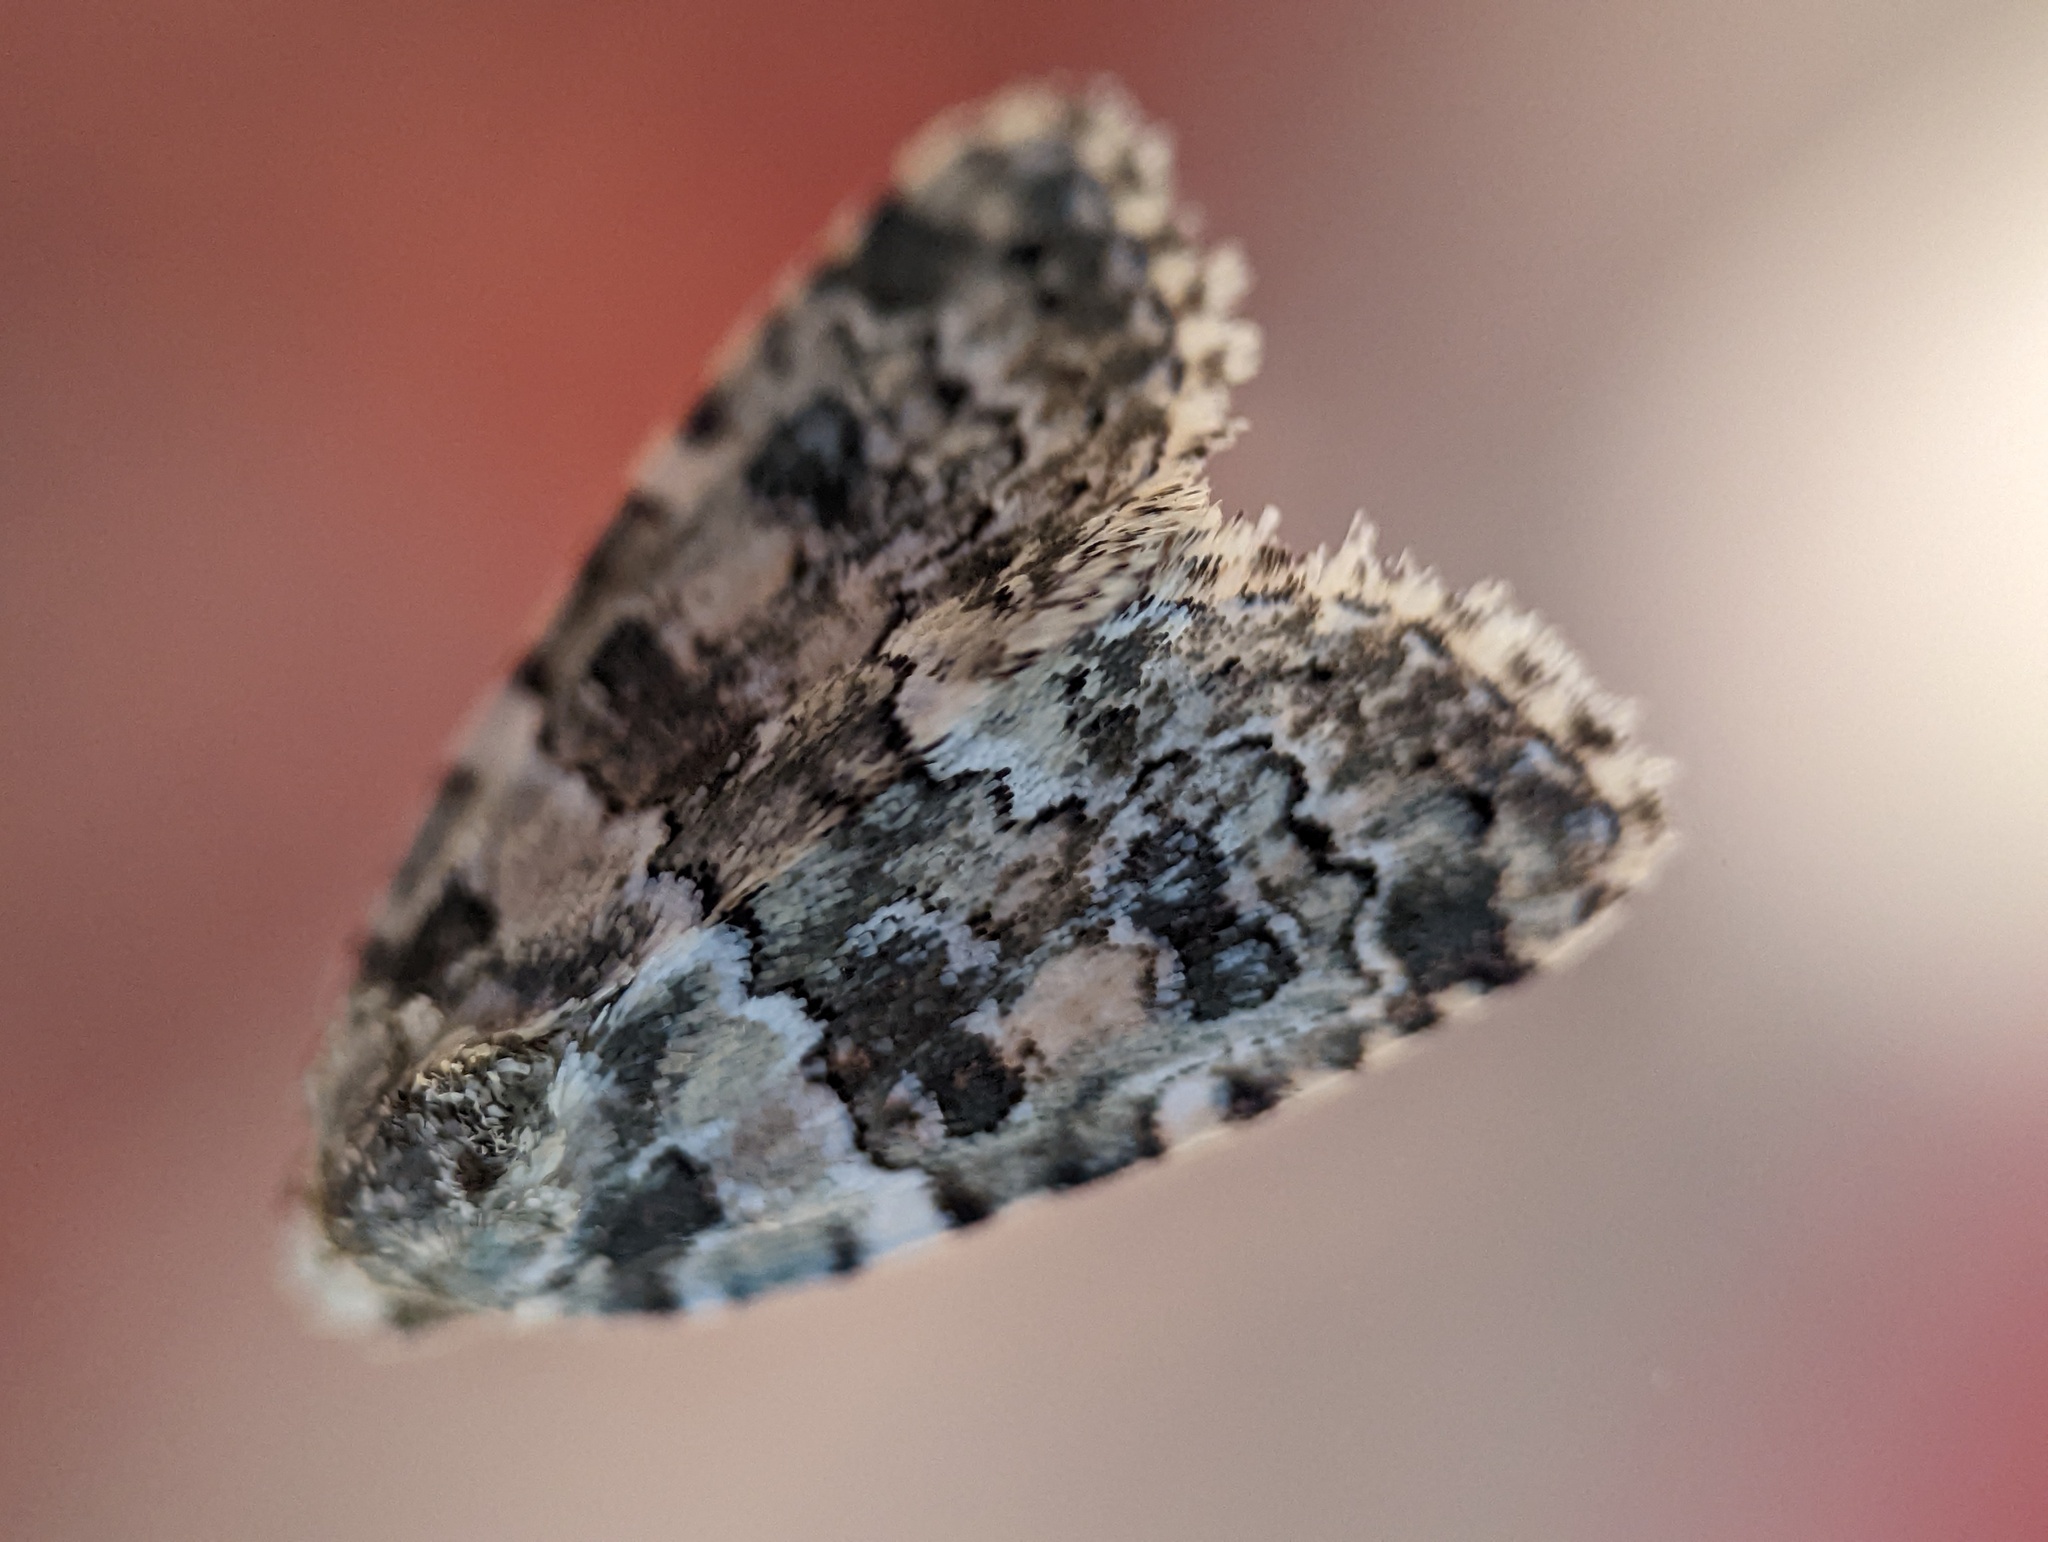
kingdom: Animalia
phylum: Arthropoda
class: Insecta
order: Lepidoptera
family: Noctuidae
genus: Bryophila
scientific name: Bryophila domestica
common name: Marbled beauty
